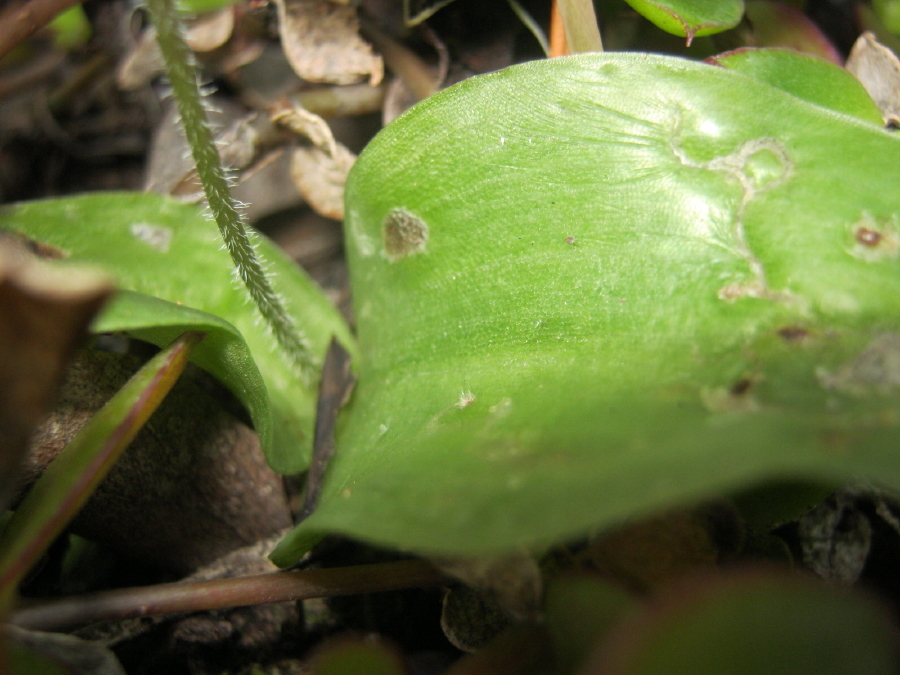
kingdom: Plantae
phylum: Tracheophyta
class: Liliopsida
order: Asparagales
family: Orchidaceae
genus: Holothrix
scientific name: Holothrix parviflora
